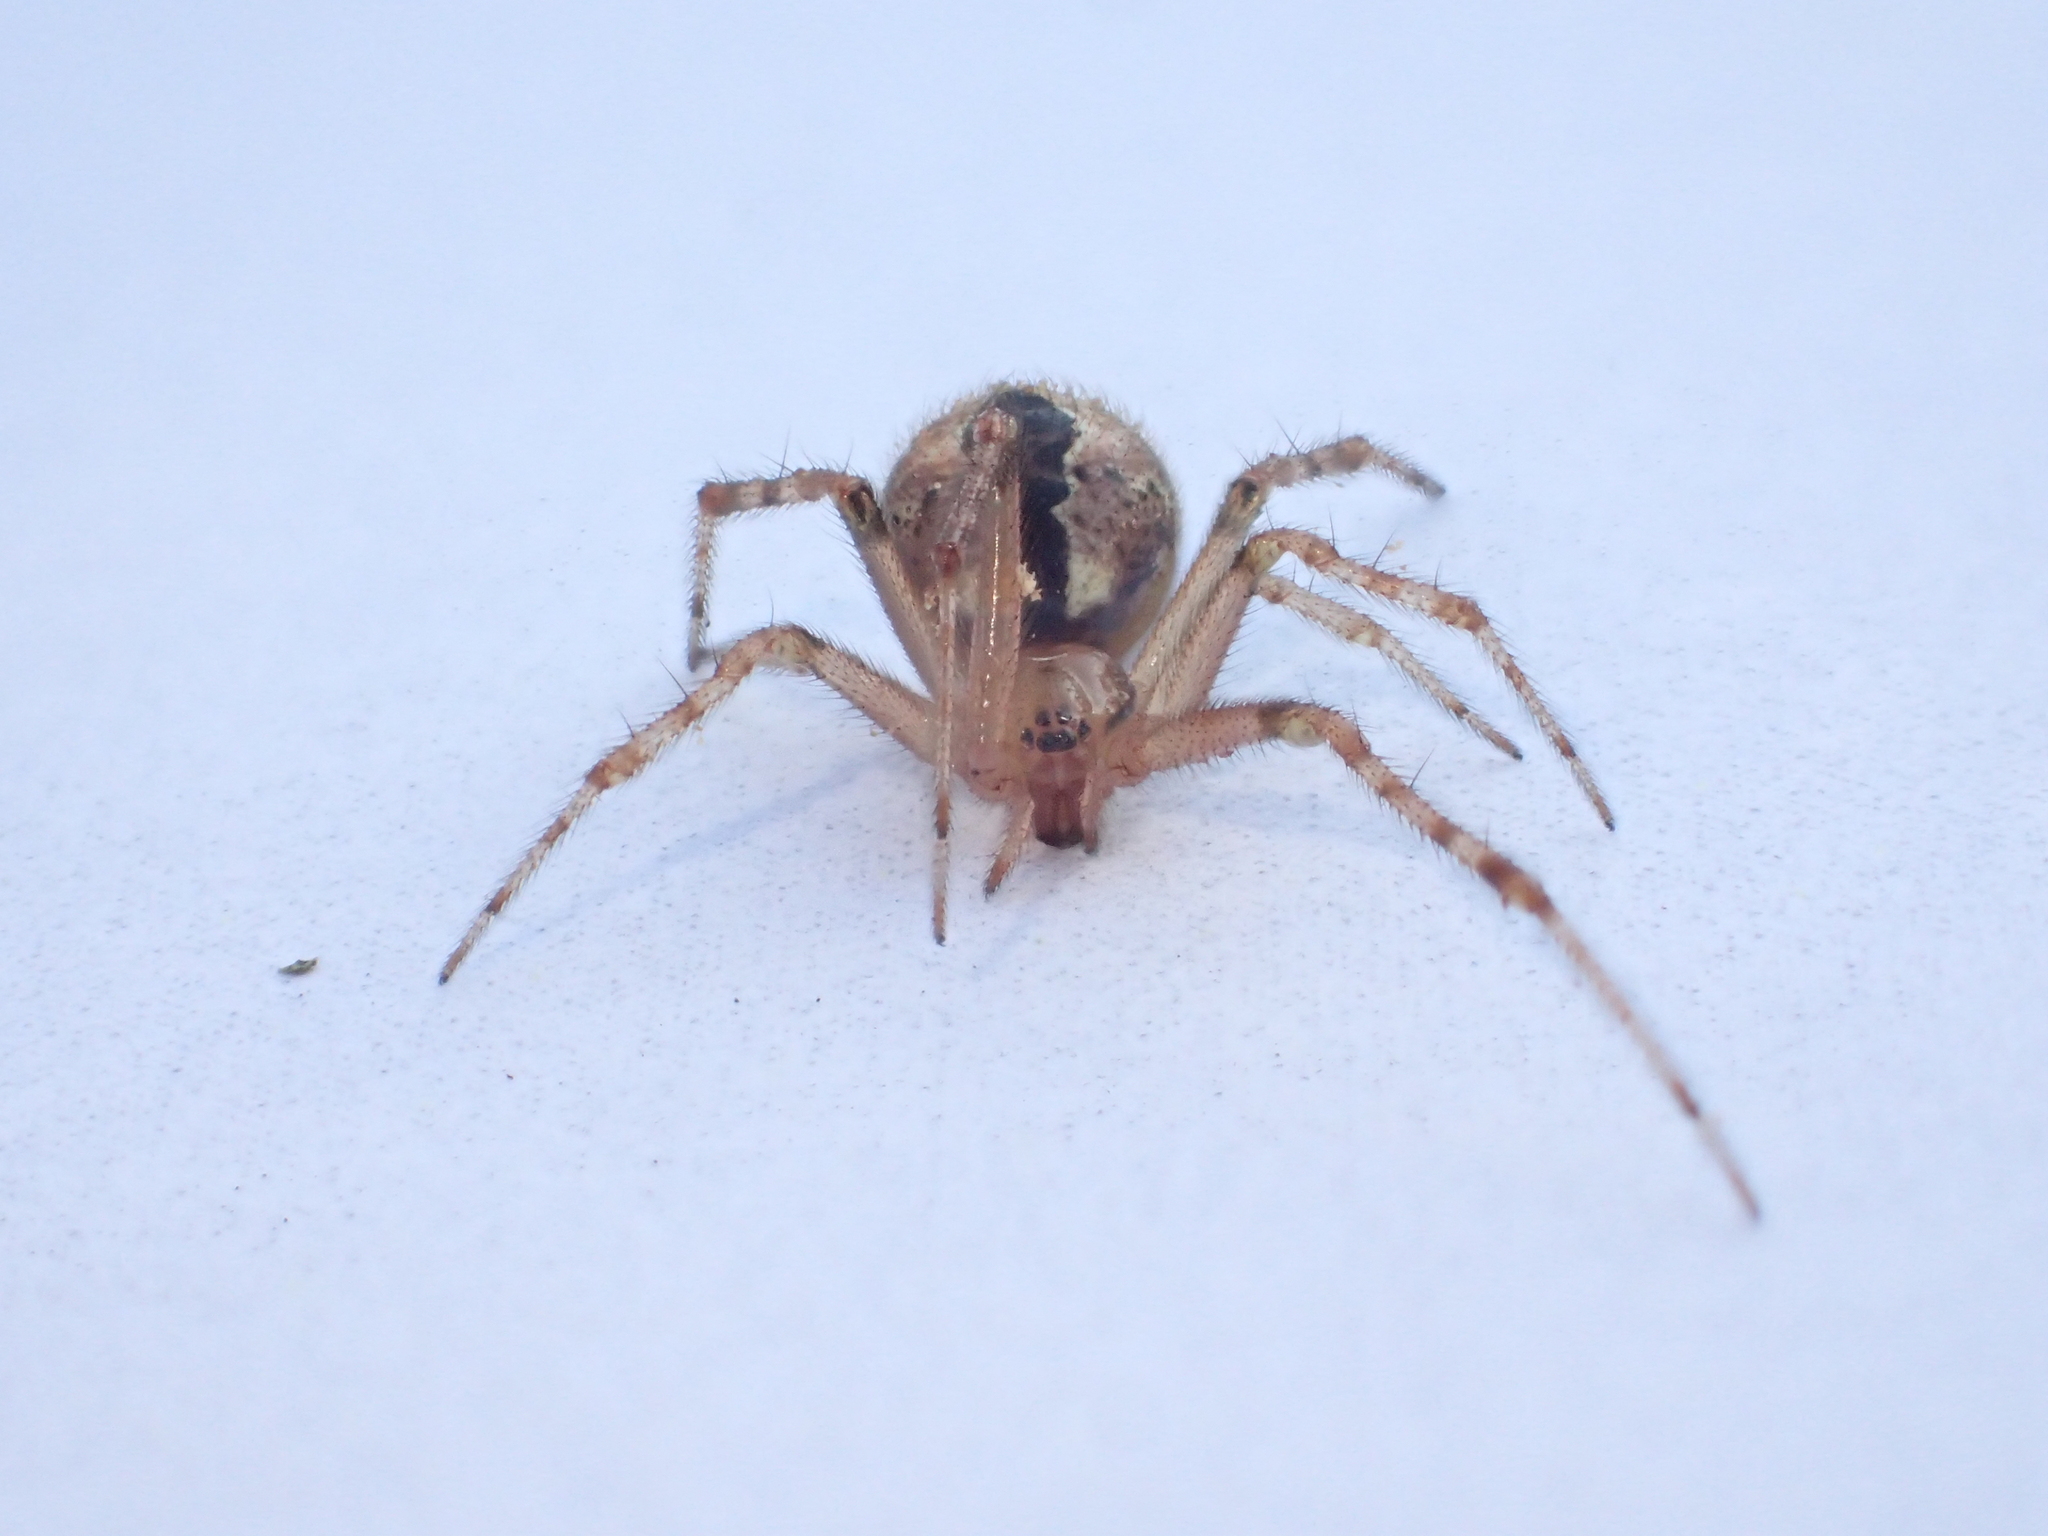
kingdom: Animalia
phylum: Arthropoda
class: Arachnida
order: Araneae
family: Theridiidae
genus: Cryptachaea
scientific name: Cryptachaea veruculata
